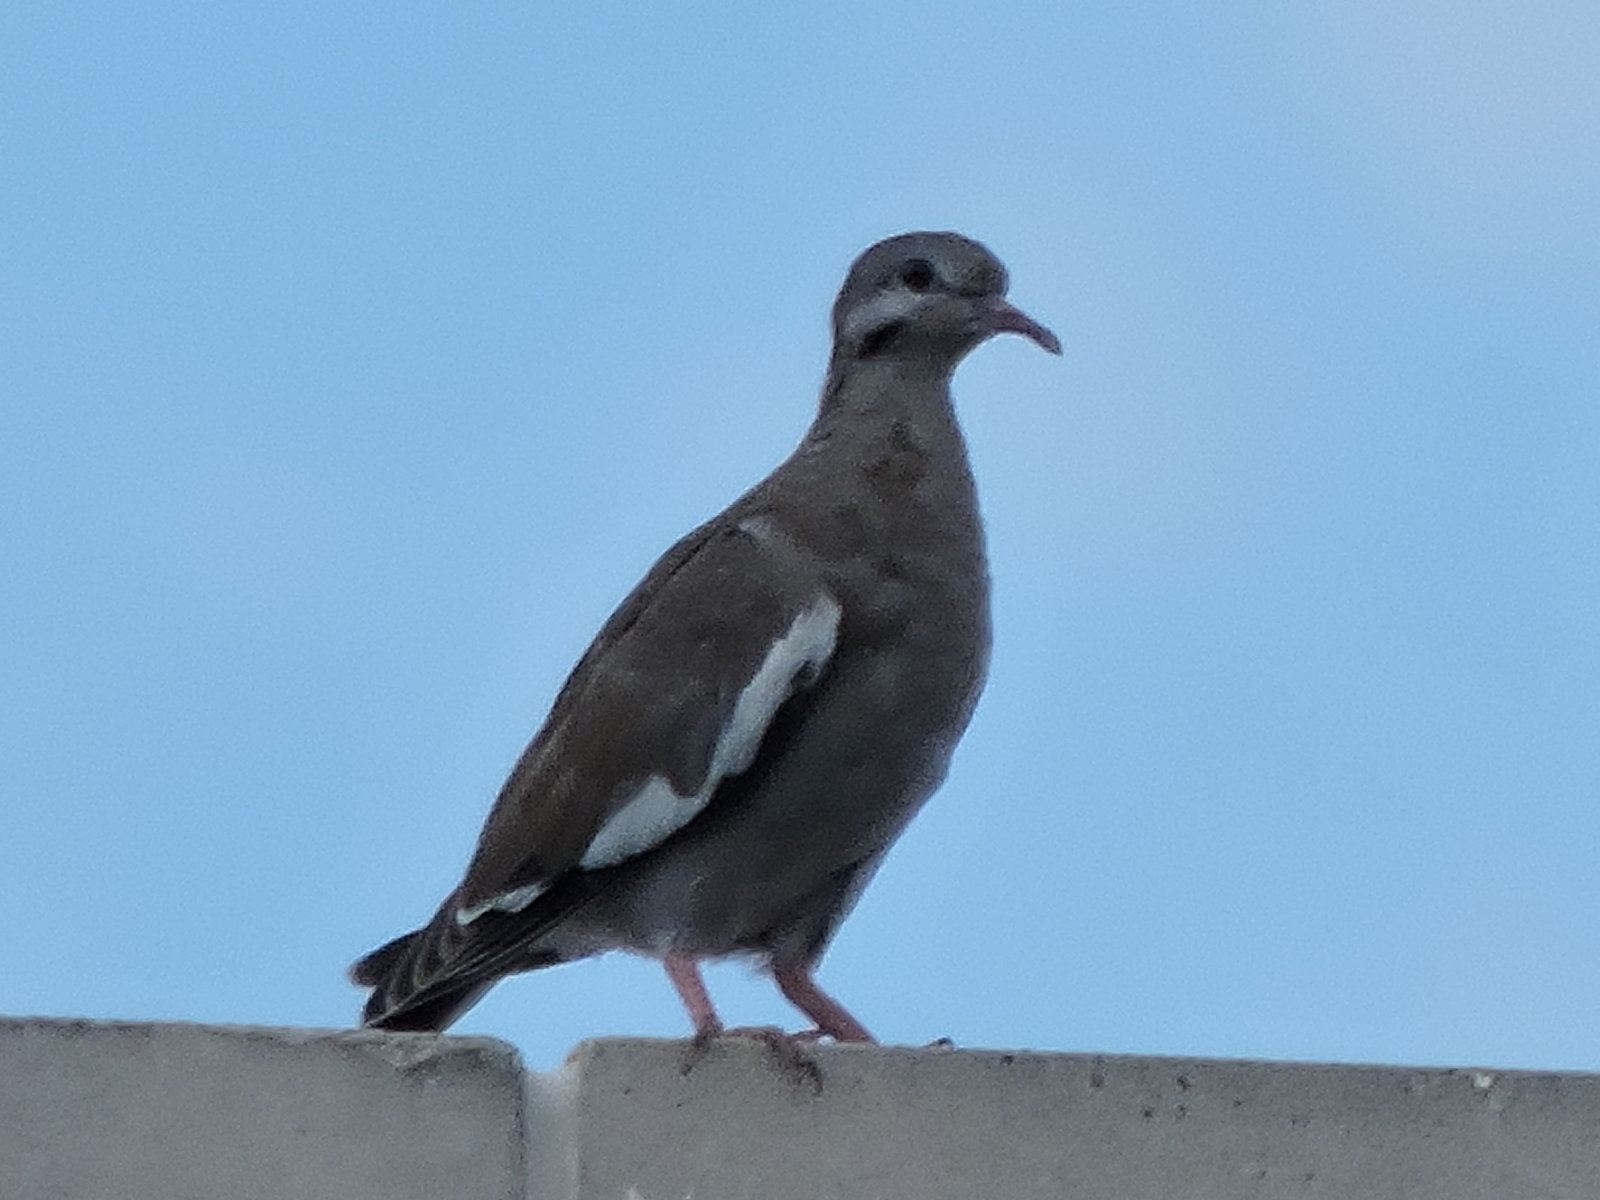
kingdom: Animalia
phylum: Chordata
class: Aves
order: Columbiformes
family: Columbidae
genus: Zenaida
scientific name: Zenaida asiatica
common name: White-winged dove
